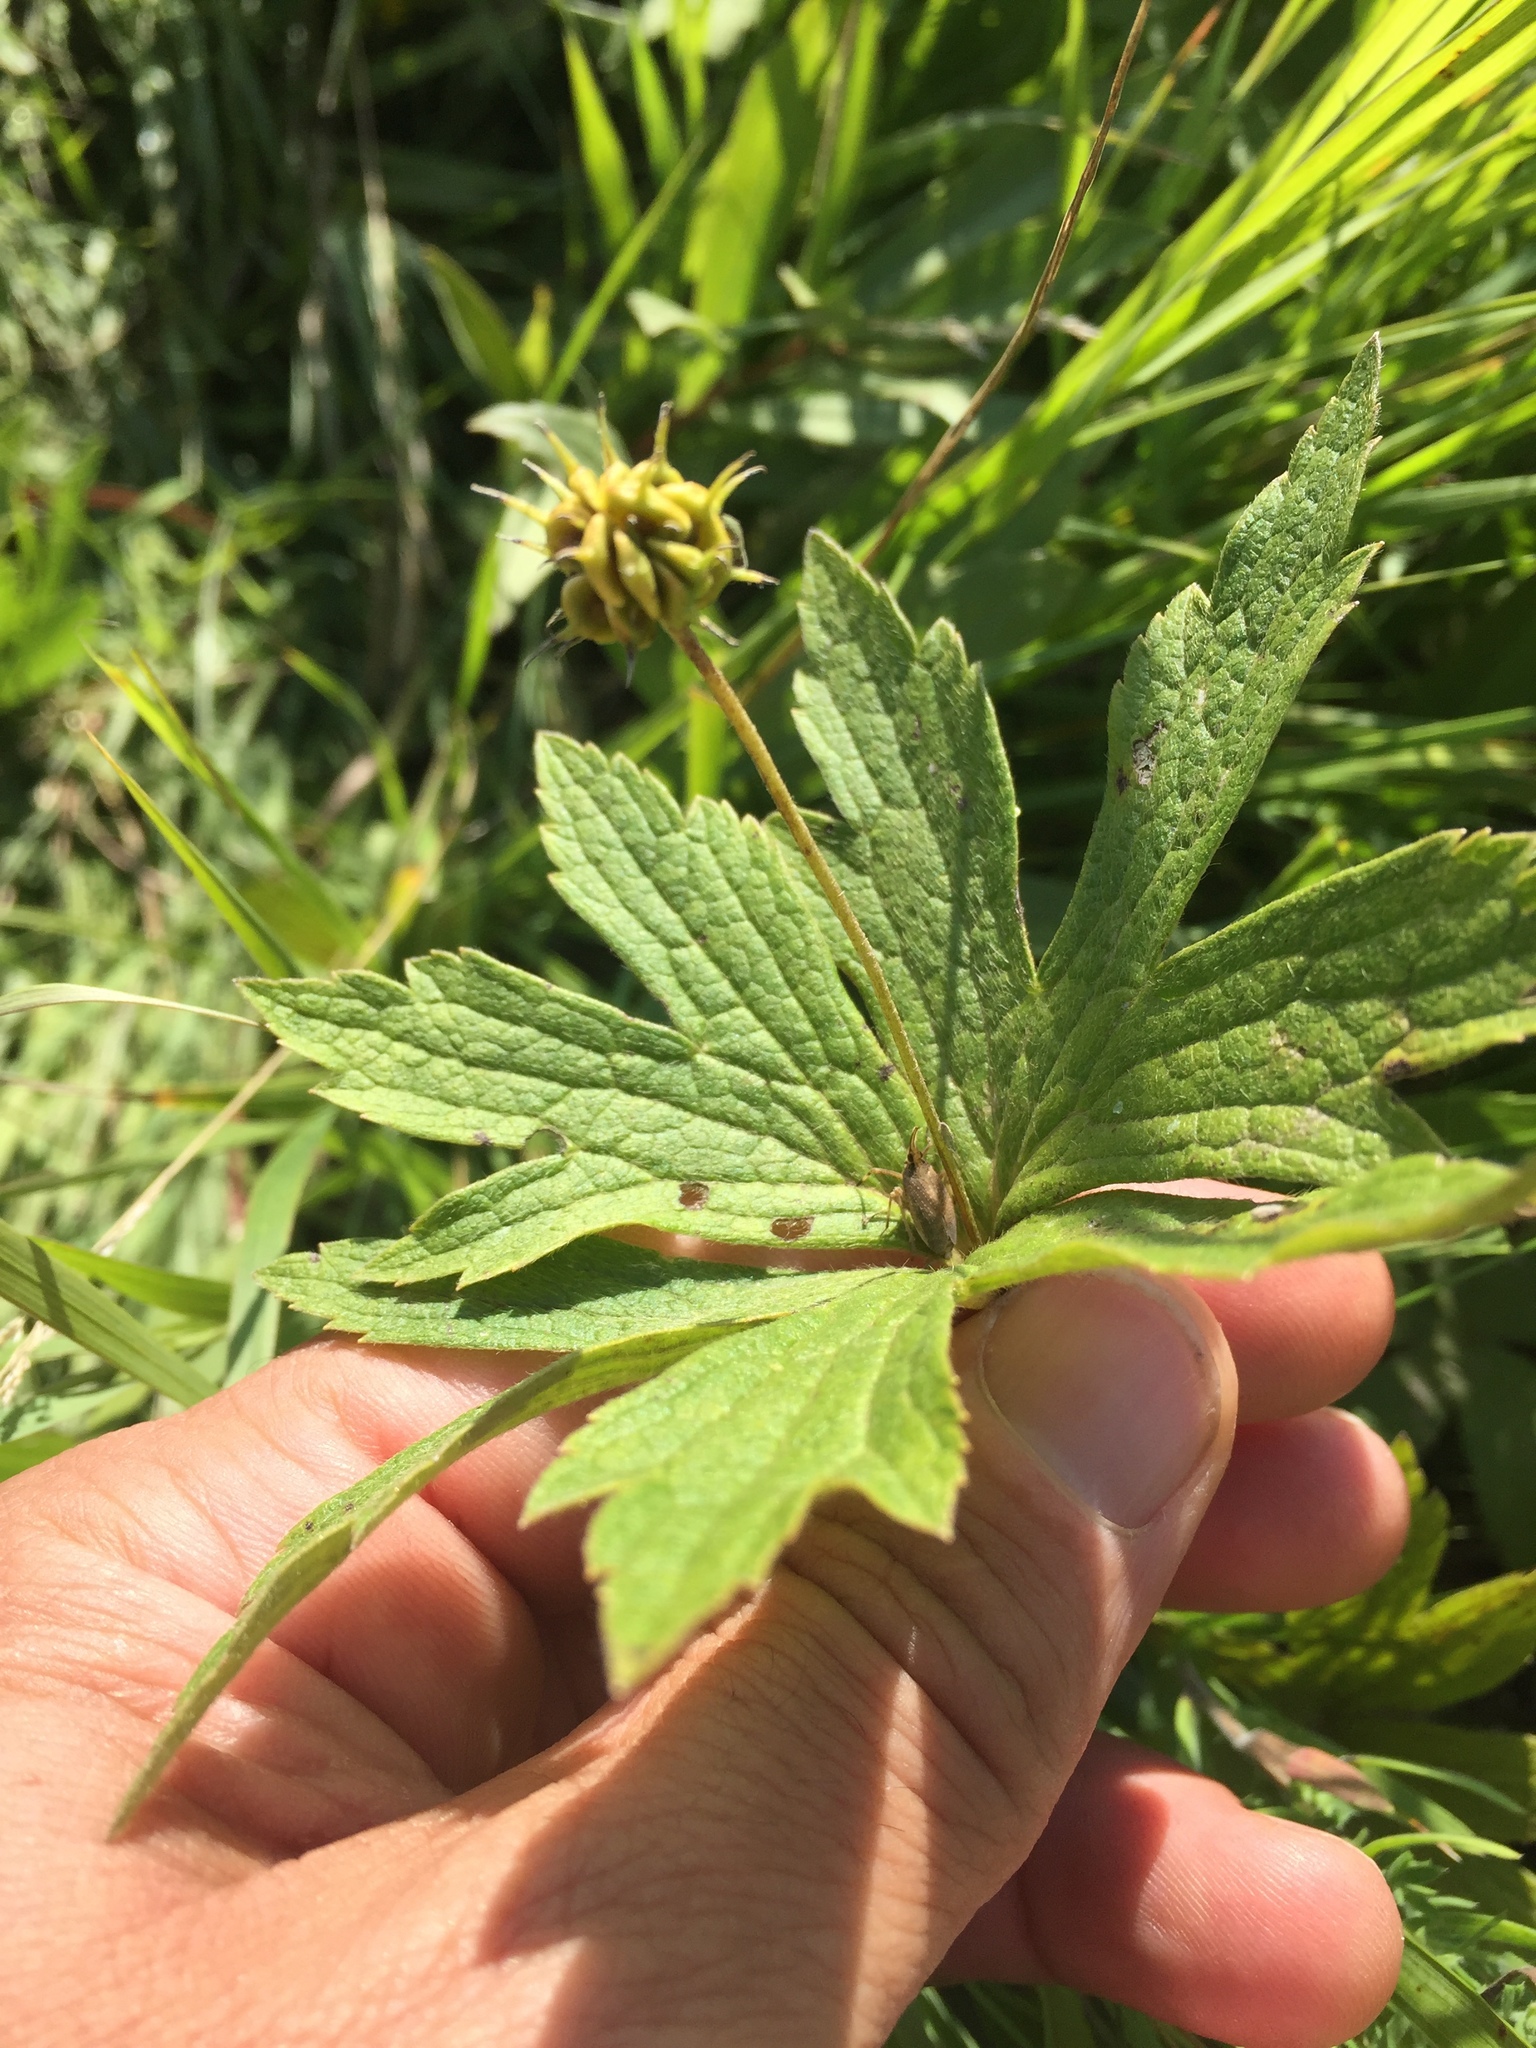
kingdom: Plantae
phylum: Tracheophyta
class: Magnoliopsida
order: Ranunculales
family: Ranunculaceae
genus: Anemonastrum
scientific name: Anemonastrum canadense
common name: Canada anemone
